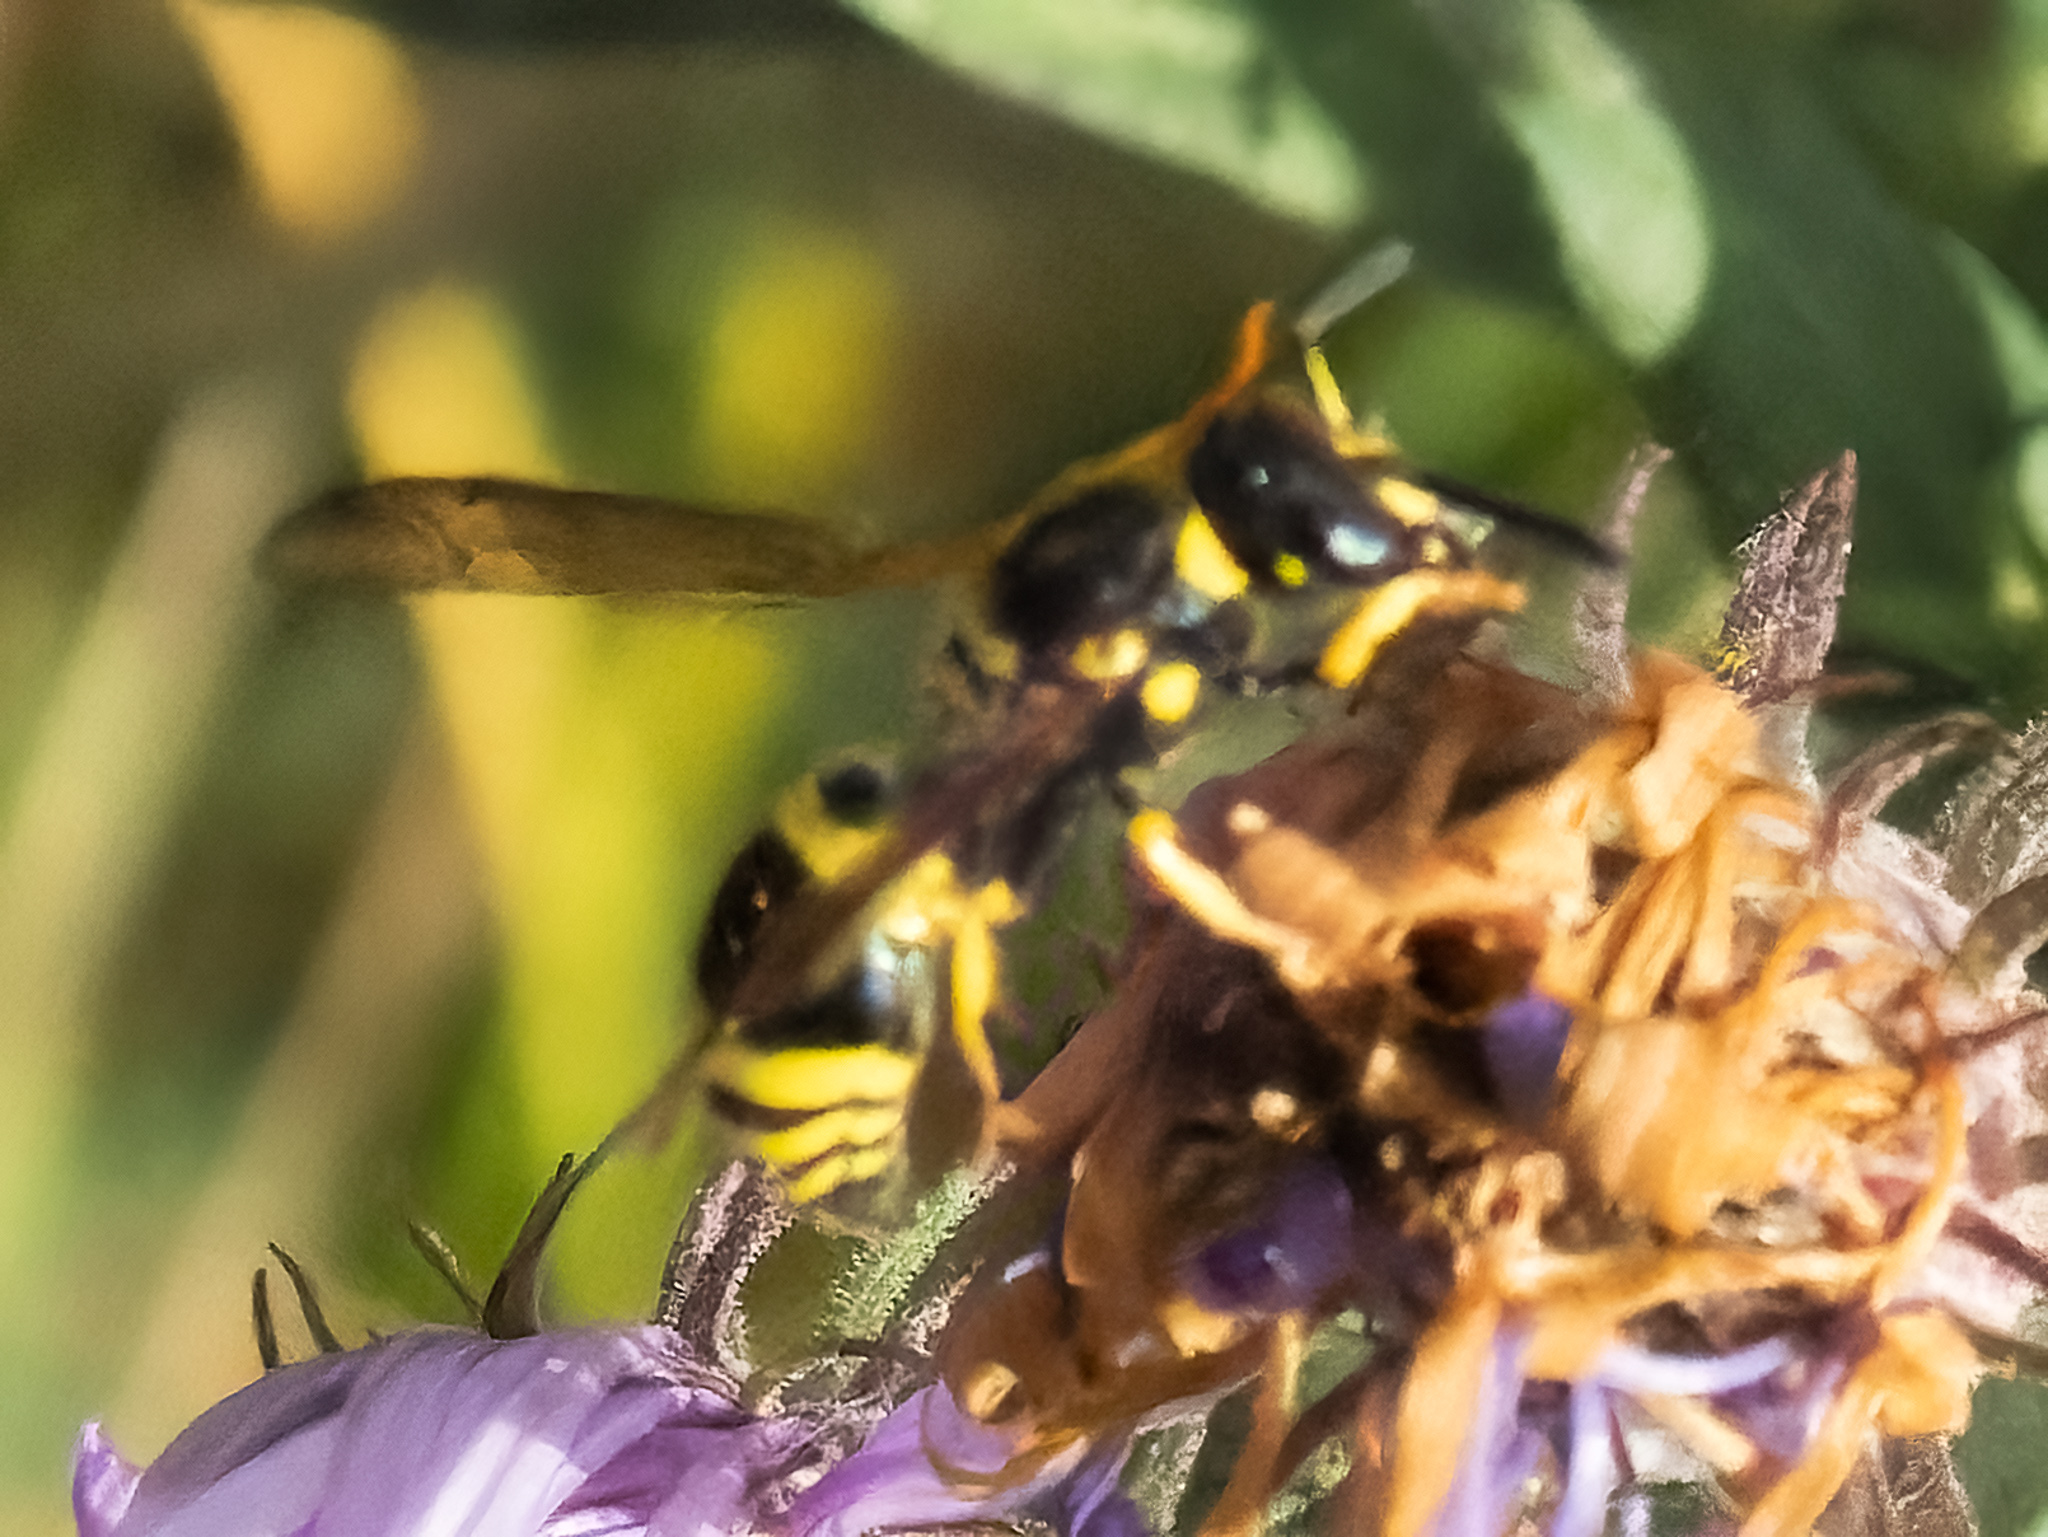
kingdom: Animalia
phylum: Arthropoda
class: Insecta
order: Hymenoptera
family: Vespidae
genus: Ancistrocerus
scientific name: Ancistrocerus gazella
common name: European tube wasp
